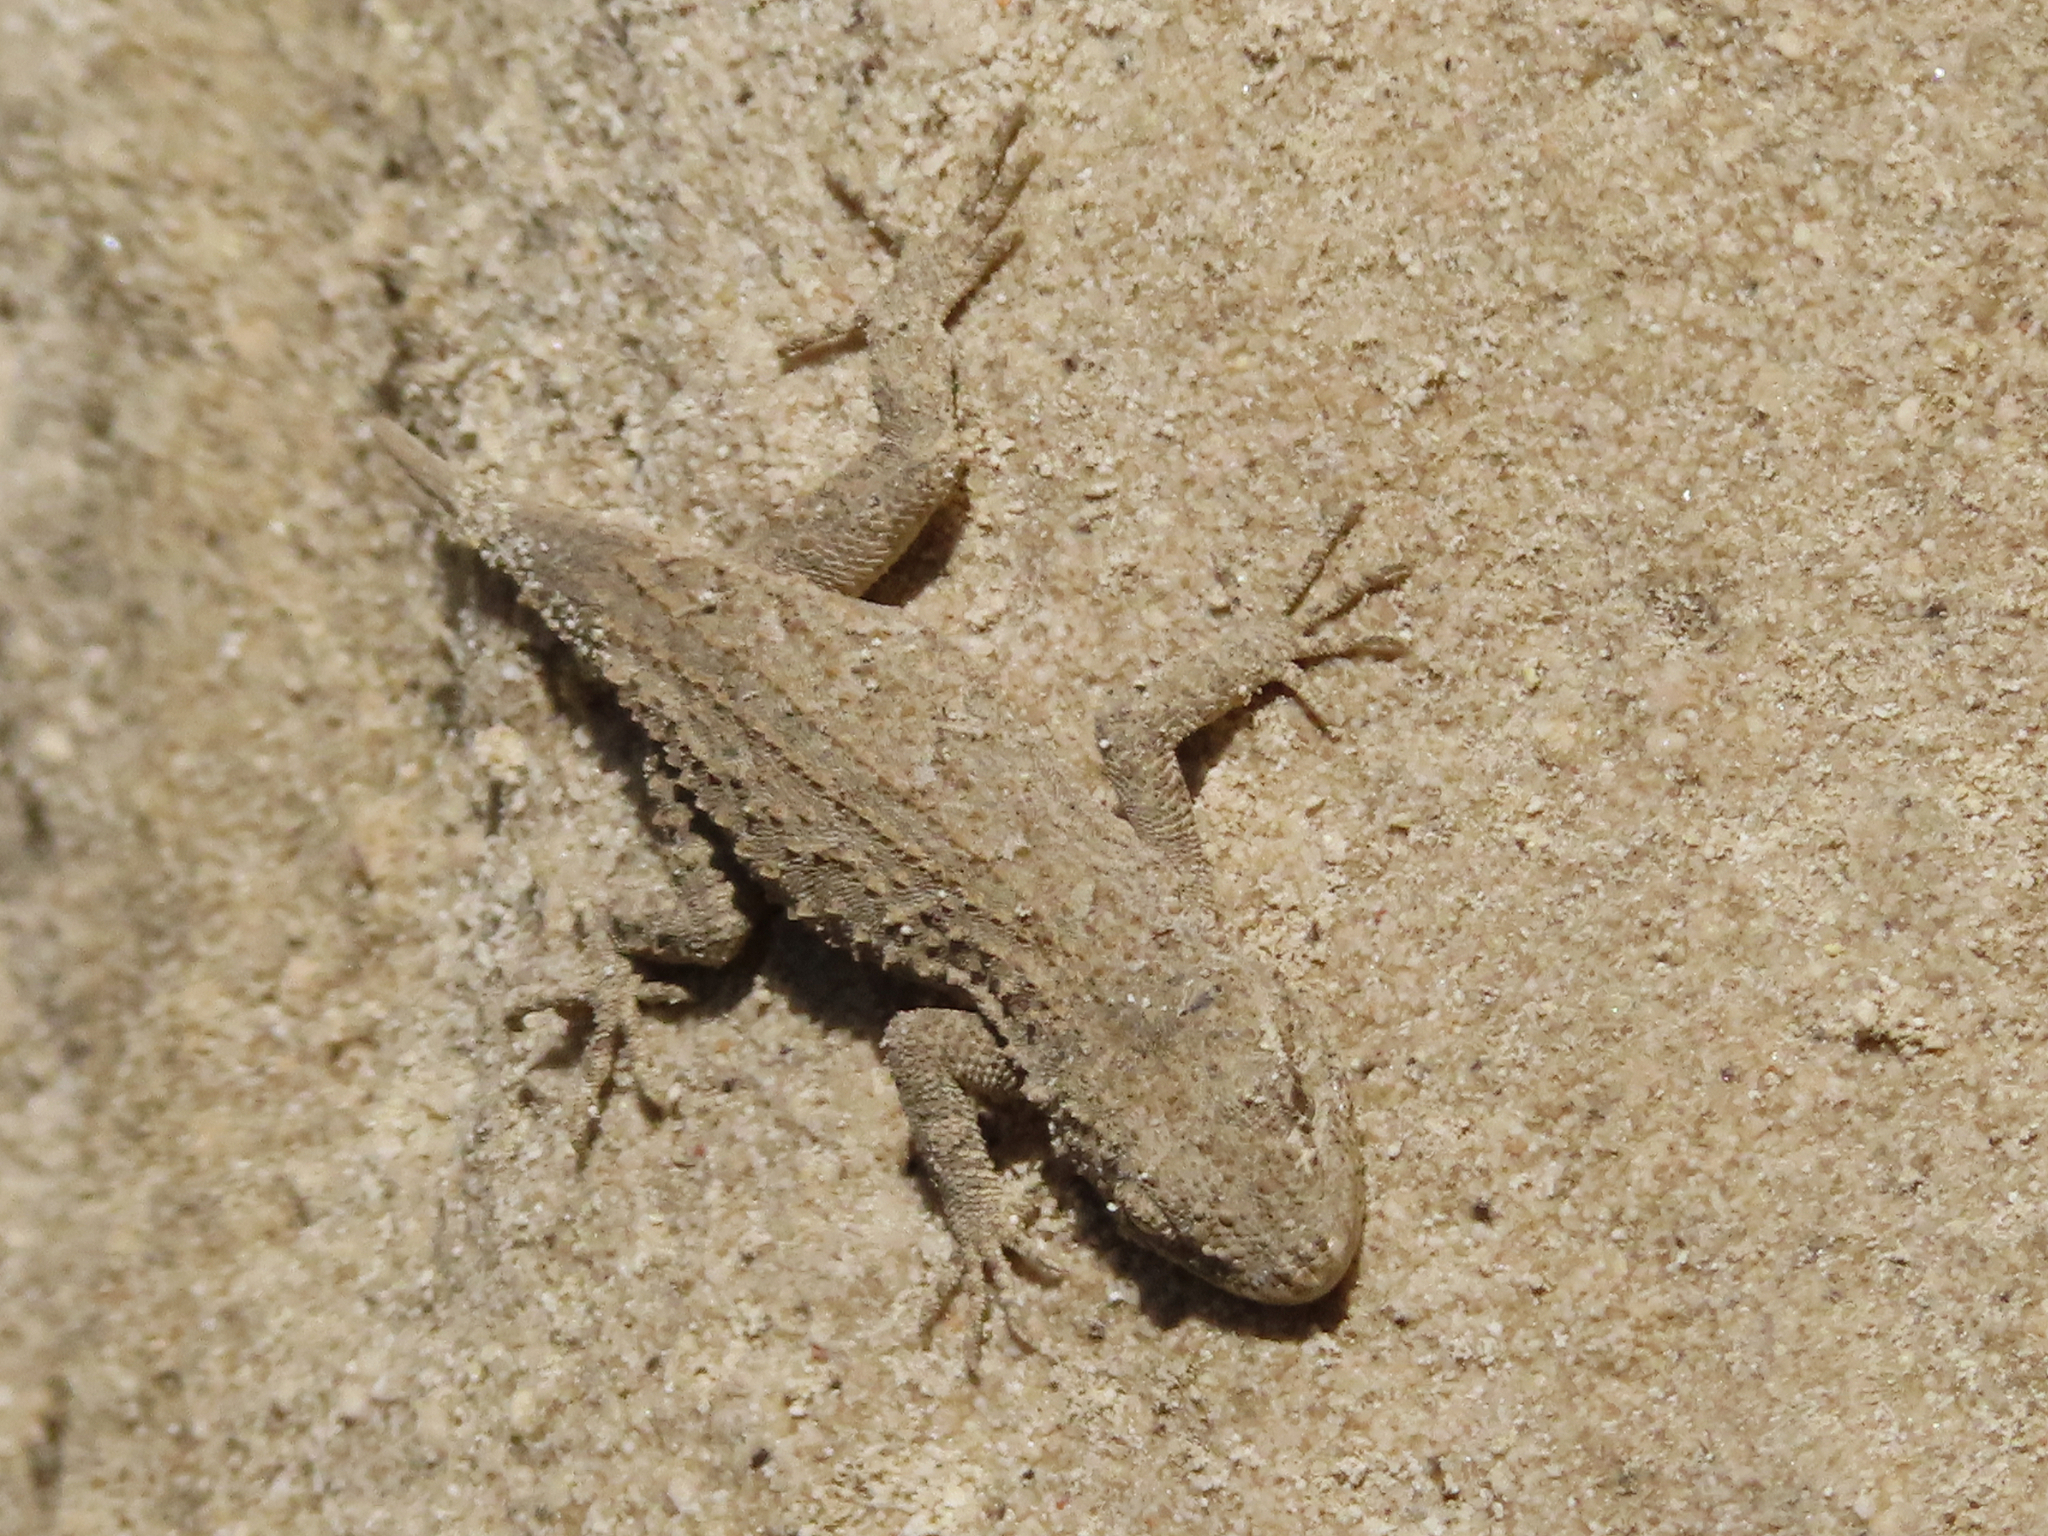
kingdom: Animalia
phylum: Chordata
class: Squamata
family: Gekkonidae
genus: Mediodactylus
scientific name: Mediodactylus russowii
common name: Grey thin-toed gecko
